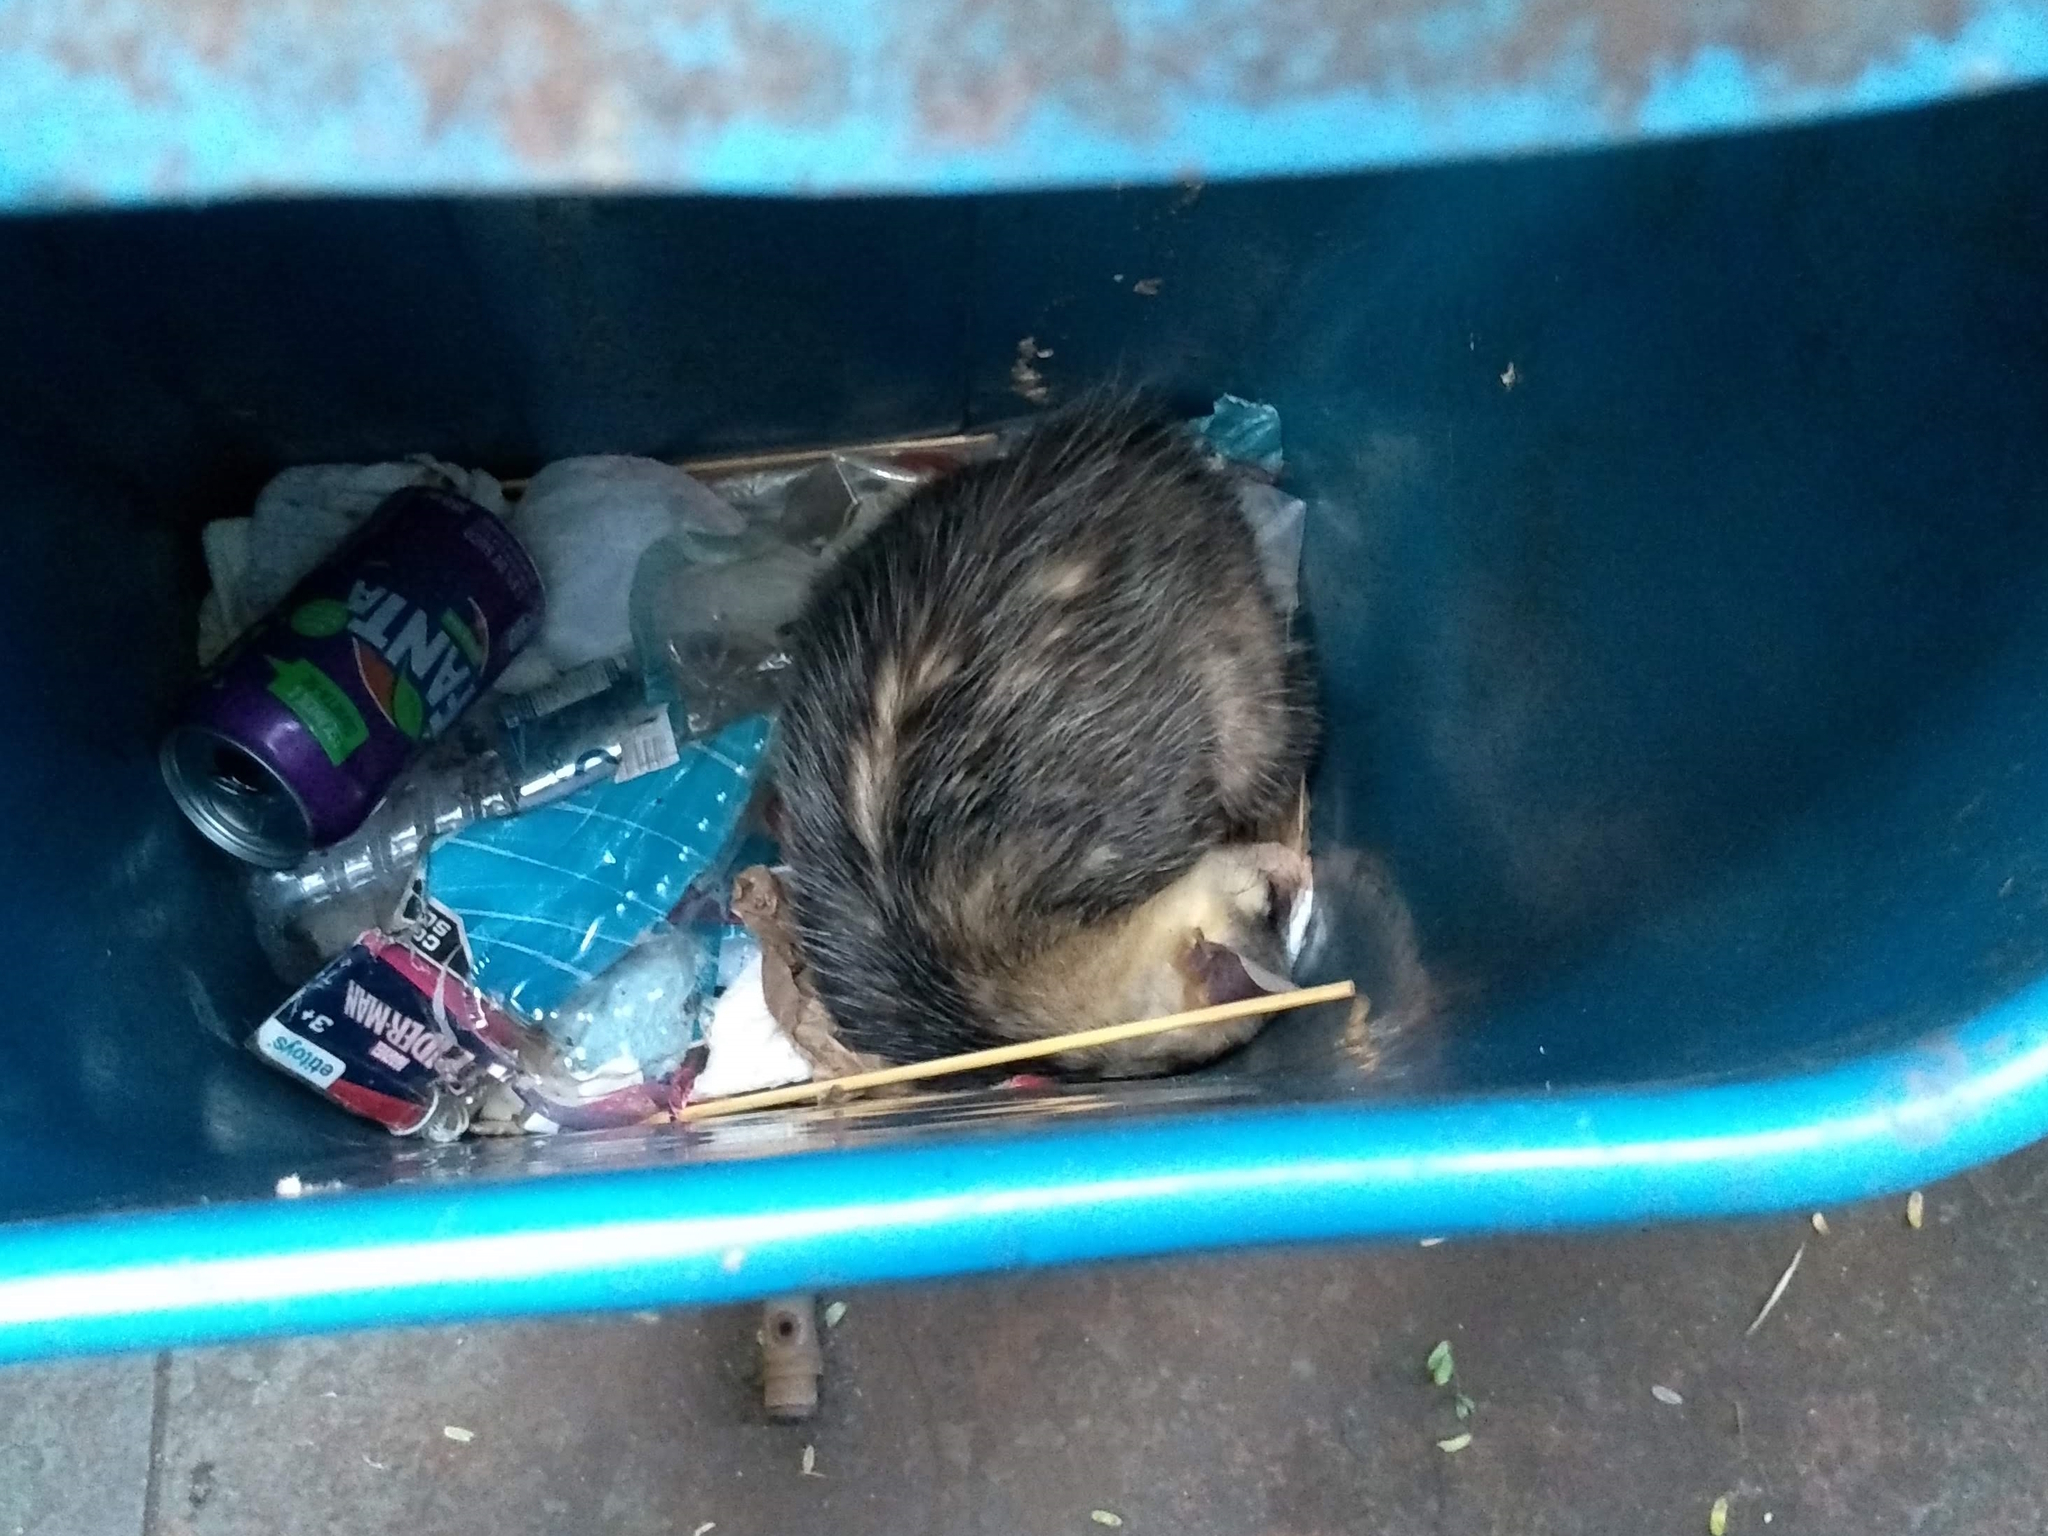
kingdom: Animalia
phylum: Chordata
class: Mammalia
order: Didelphimorphia
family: Didelphidae
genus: Didelphis
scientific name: Didelphis albiventris
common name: White-eared opossum
